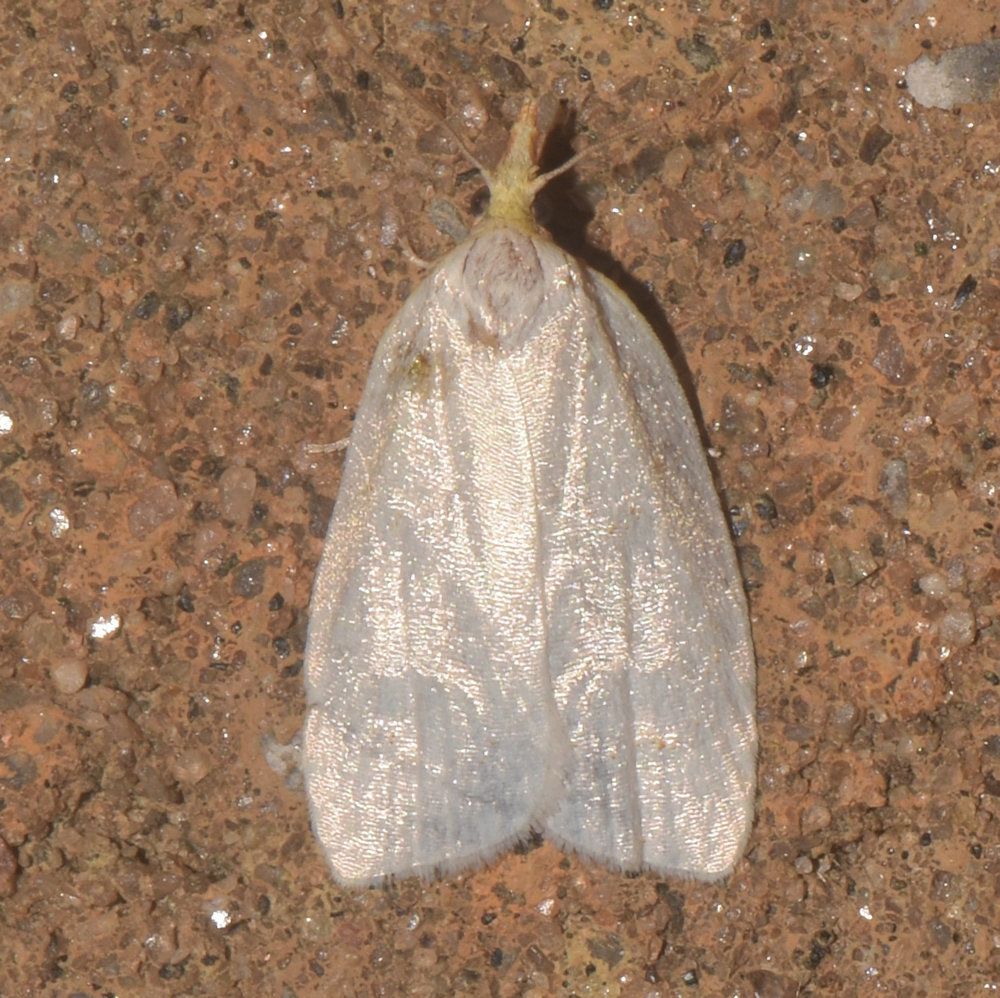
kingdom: Animalia
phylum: Arthropoda
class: Insecta
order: Lepidoptera
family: Tortricidae
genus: Cenopis
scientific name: Cenopis pettitana
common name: Maple-basswood leafroller moth
